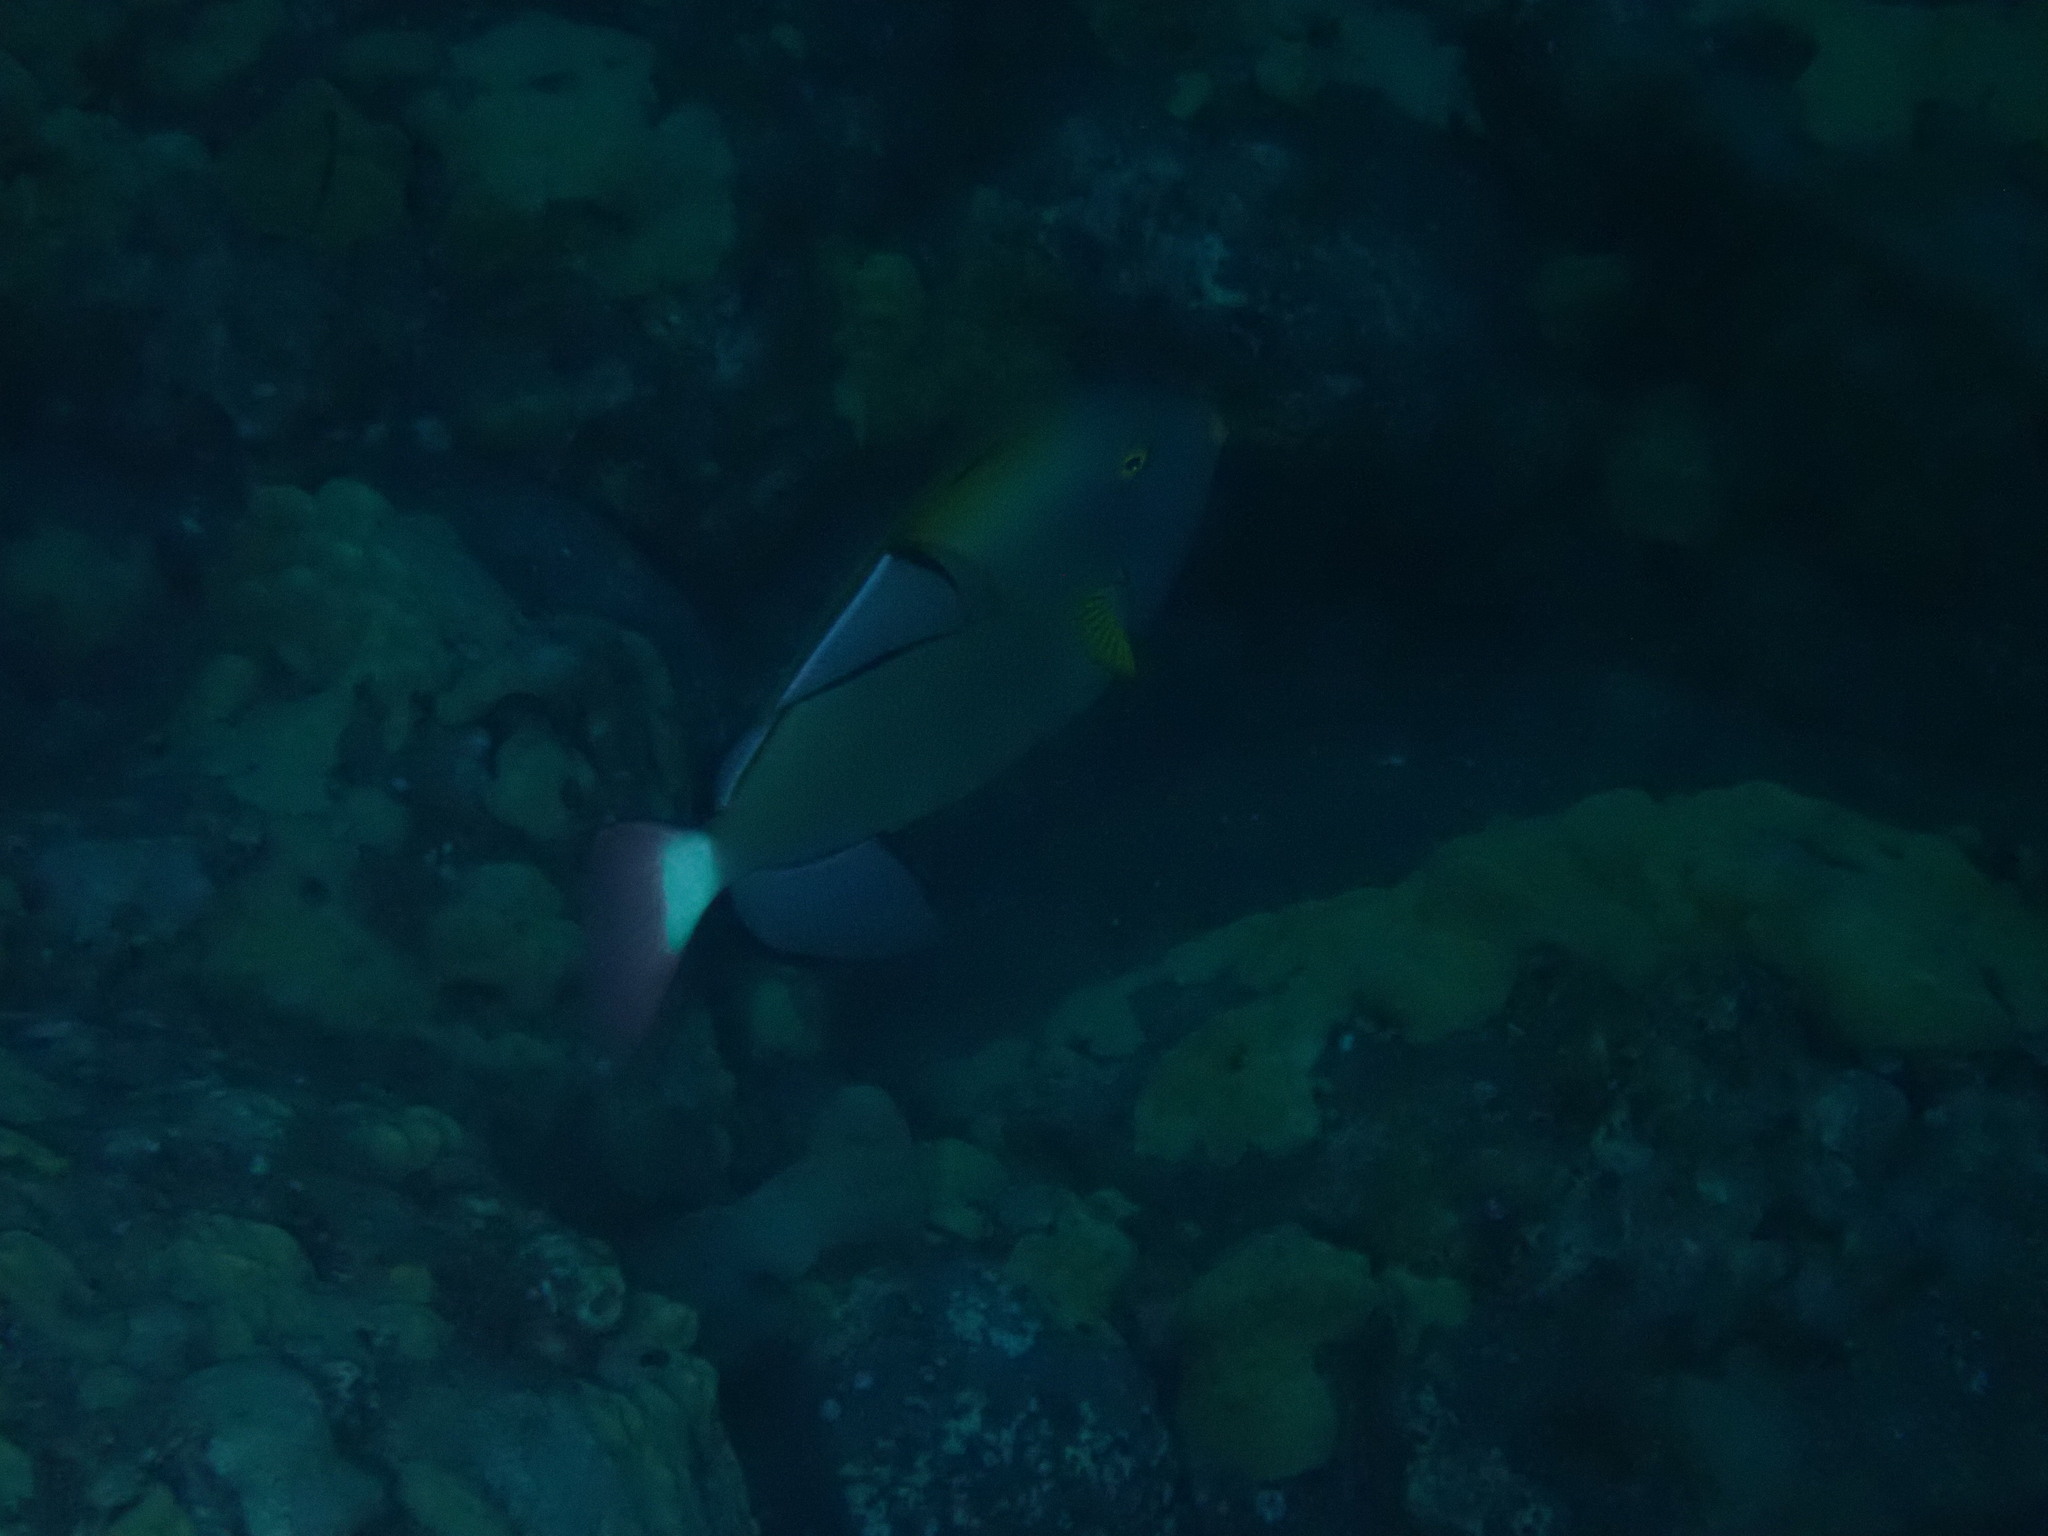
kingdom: Animalia
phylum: Chordata
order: Tetraodontiformes
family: Balistidae
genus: Melichthys
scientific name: Melichthys vidua
